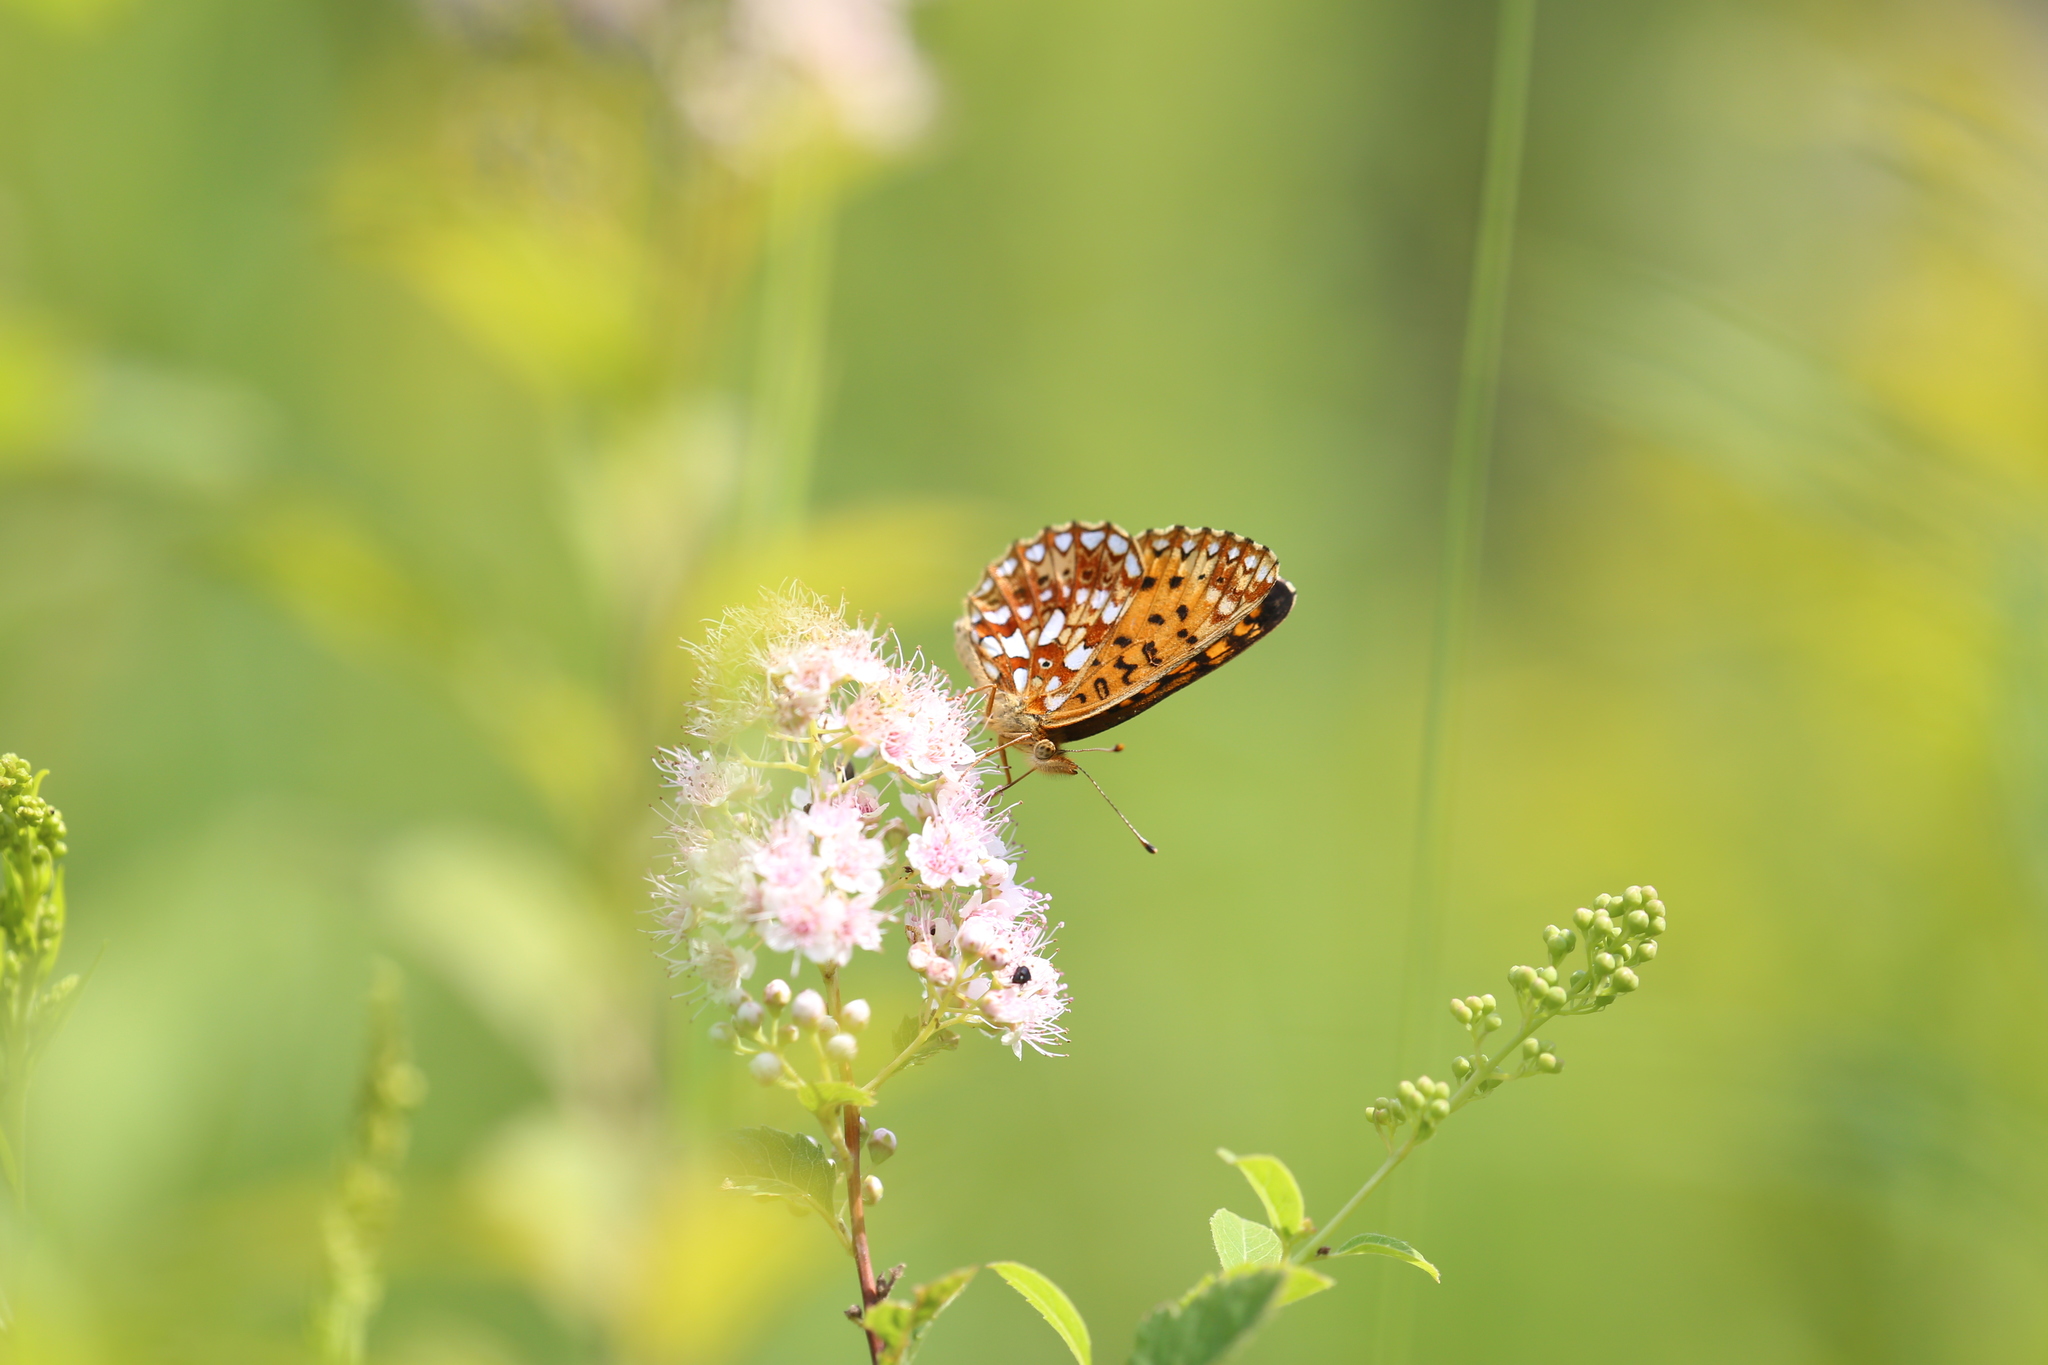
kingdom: Animalia
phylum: Arthropoda
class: Insecta
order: Lepidoptera
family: Nymphalidae
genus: Boloria
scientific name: Boloria
